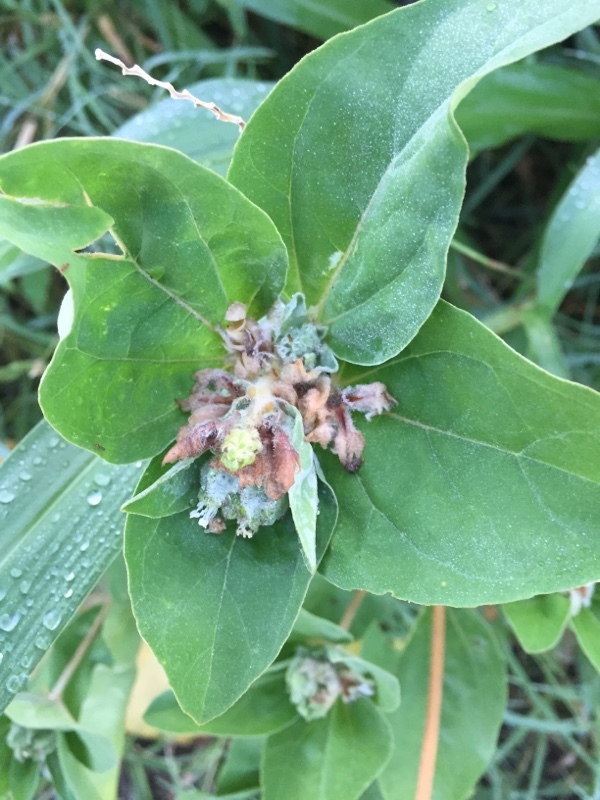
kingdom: Plantae
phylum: Tracheophyta
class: Magnoliopsida
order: Malpighiales
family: Euphorbiaceae
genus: Croton
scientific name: Croton argenteus
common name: Silver july croton
